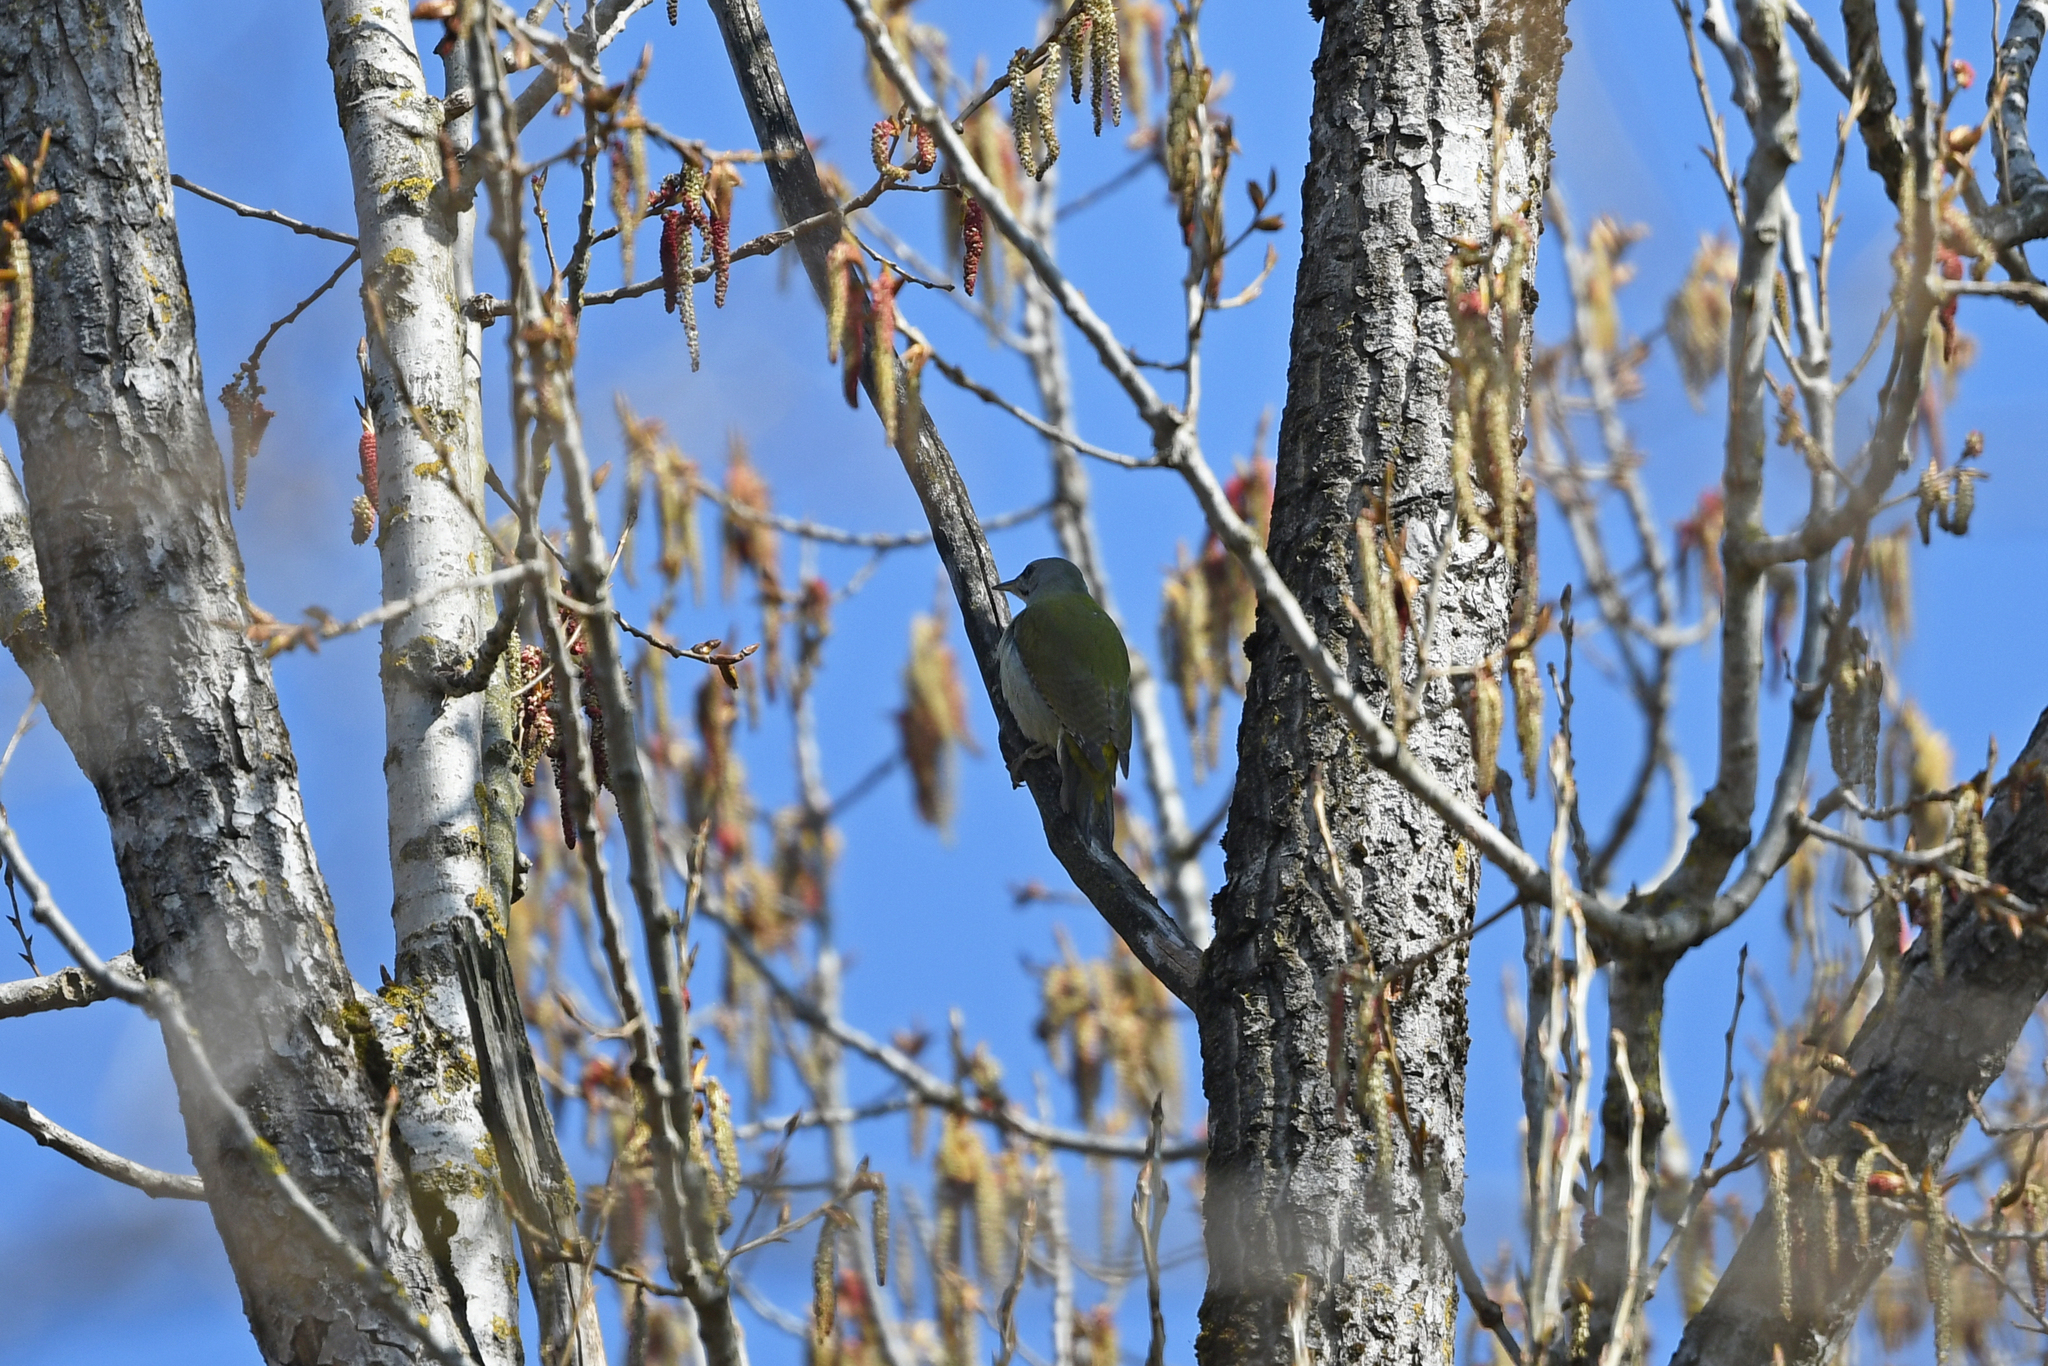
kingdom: Animalia
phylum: Chordata
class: Aves
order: Piciformes
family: Picidae
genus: Picus
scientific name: Picus canus
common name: Grey-headed woodpecker
